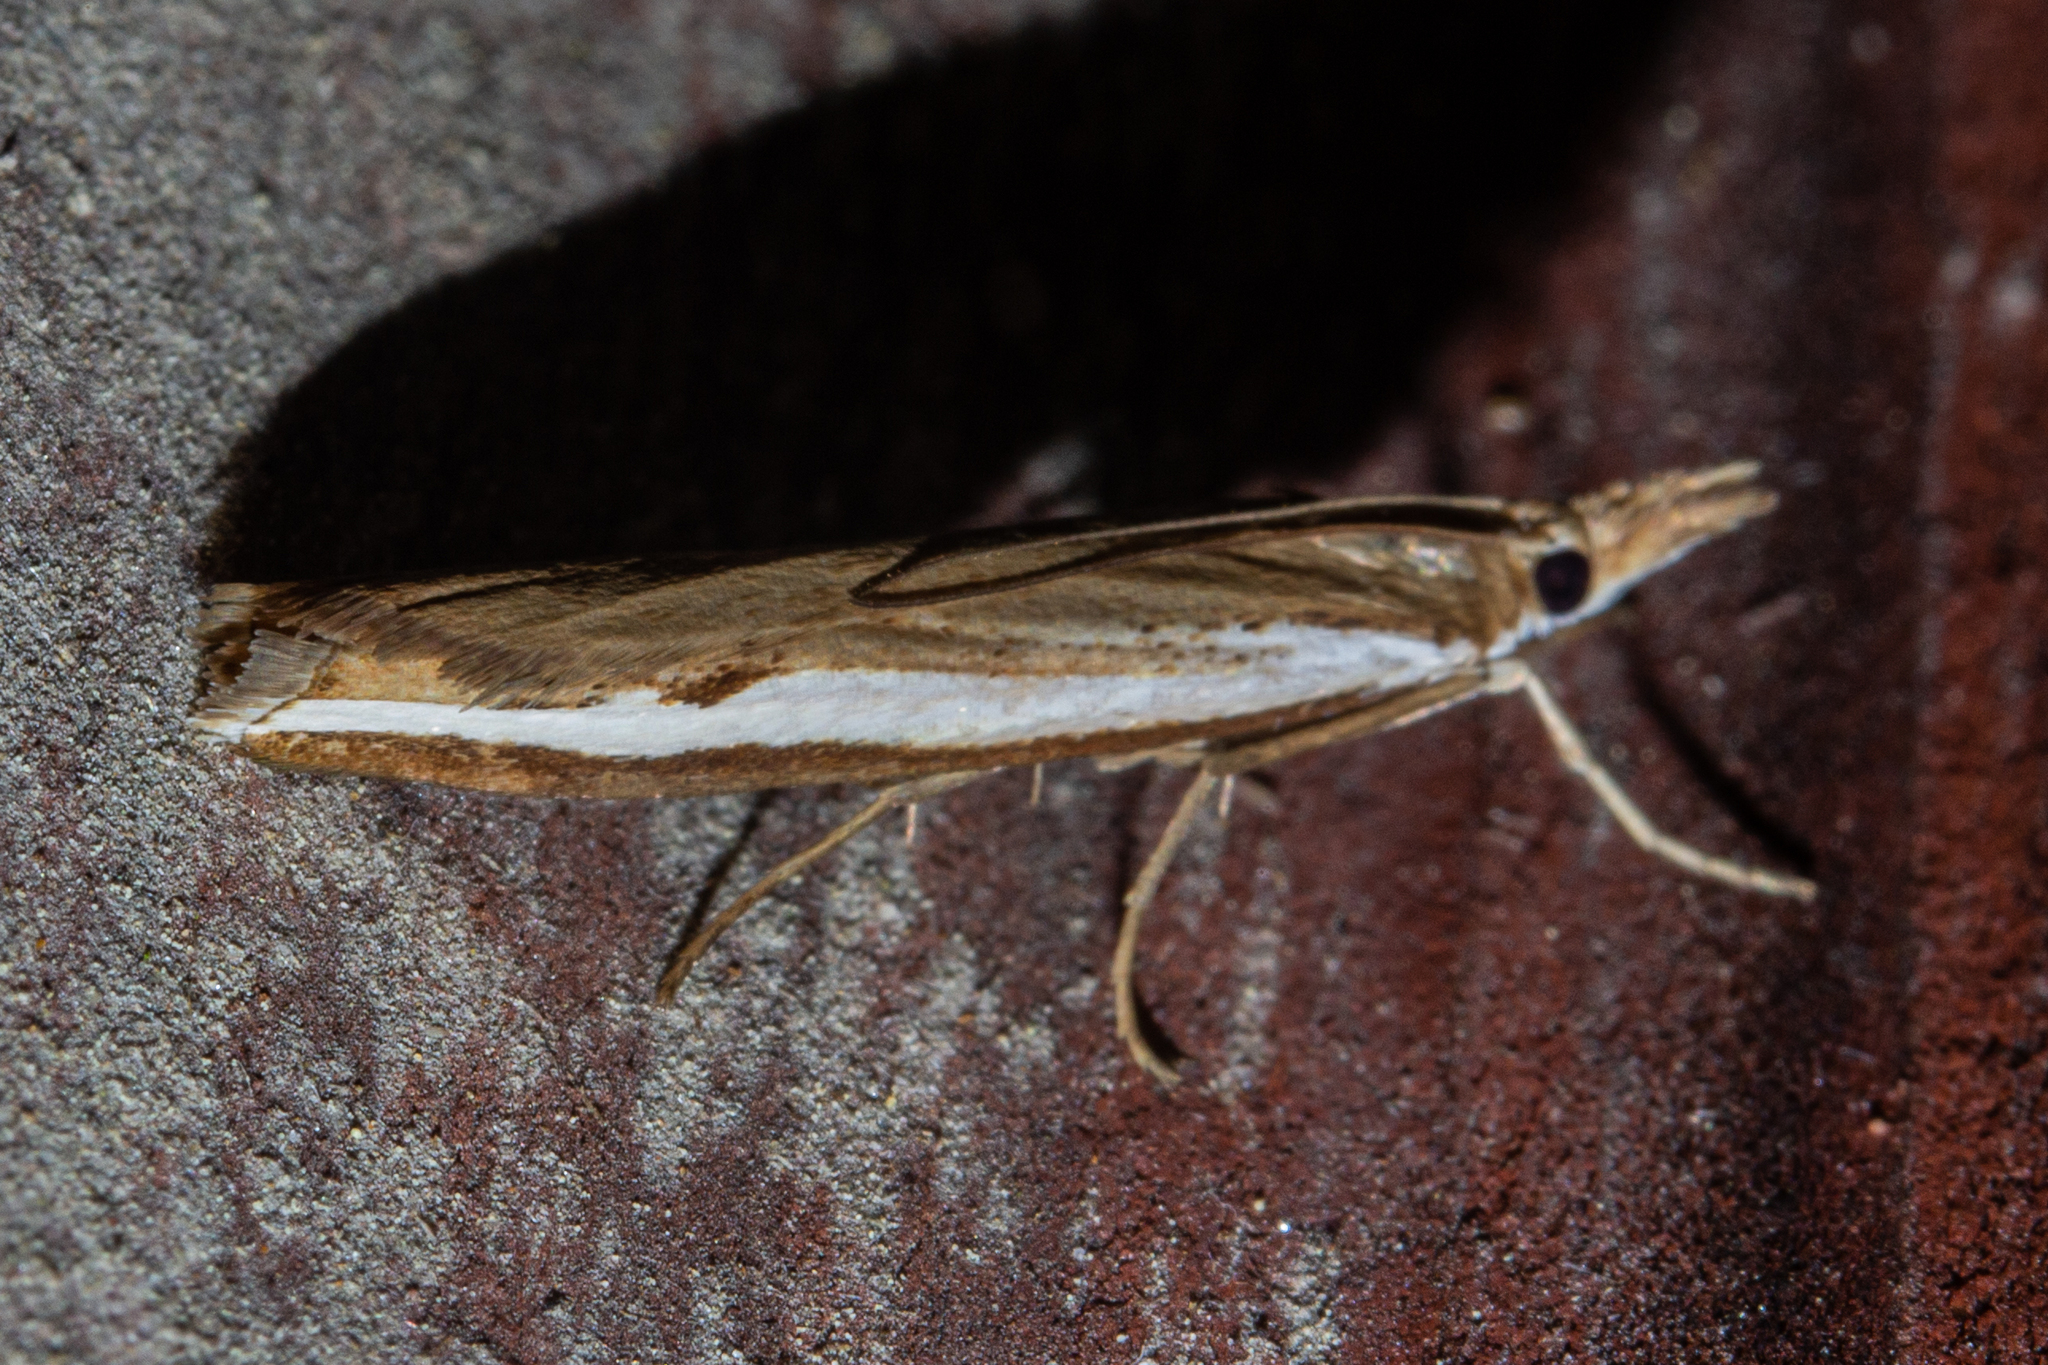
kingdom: Animalia
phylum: Arthropoda
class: Insecta
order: Lepidoptera
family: Crambidae
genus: Orocrambus
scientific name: Orocrambus flexuosellus
